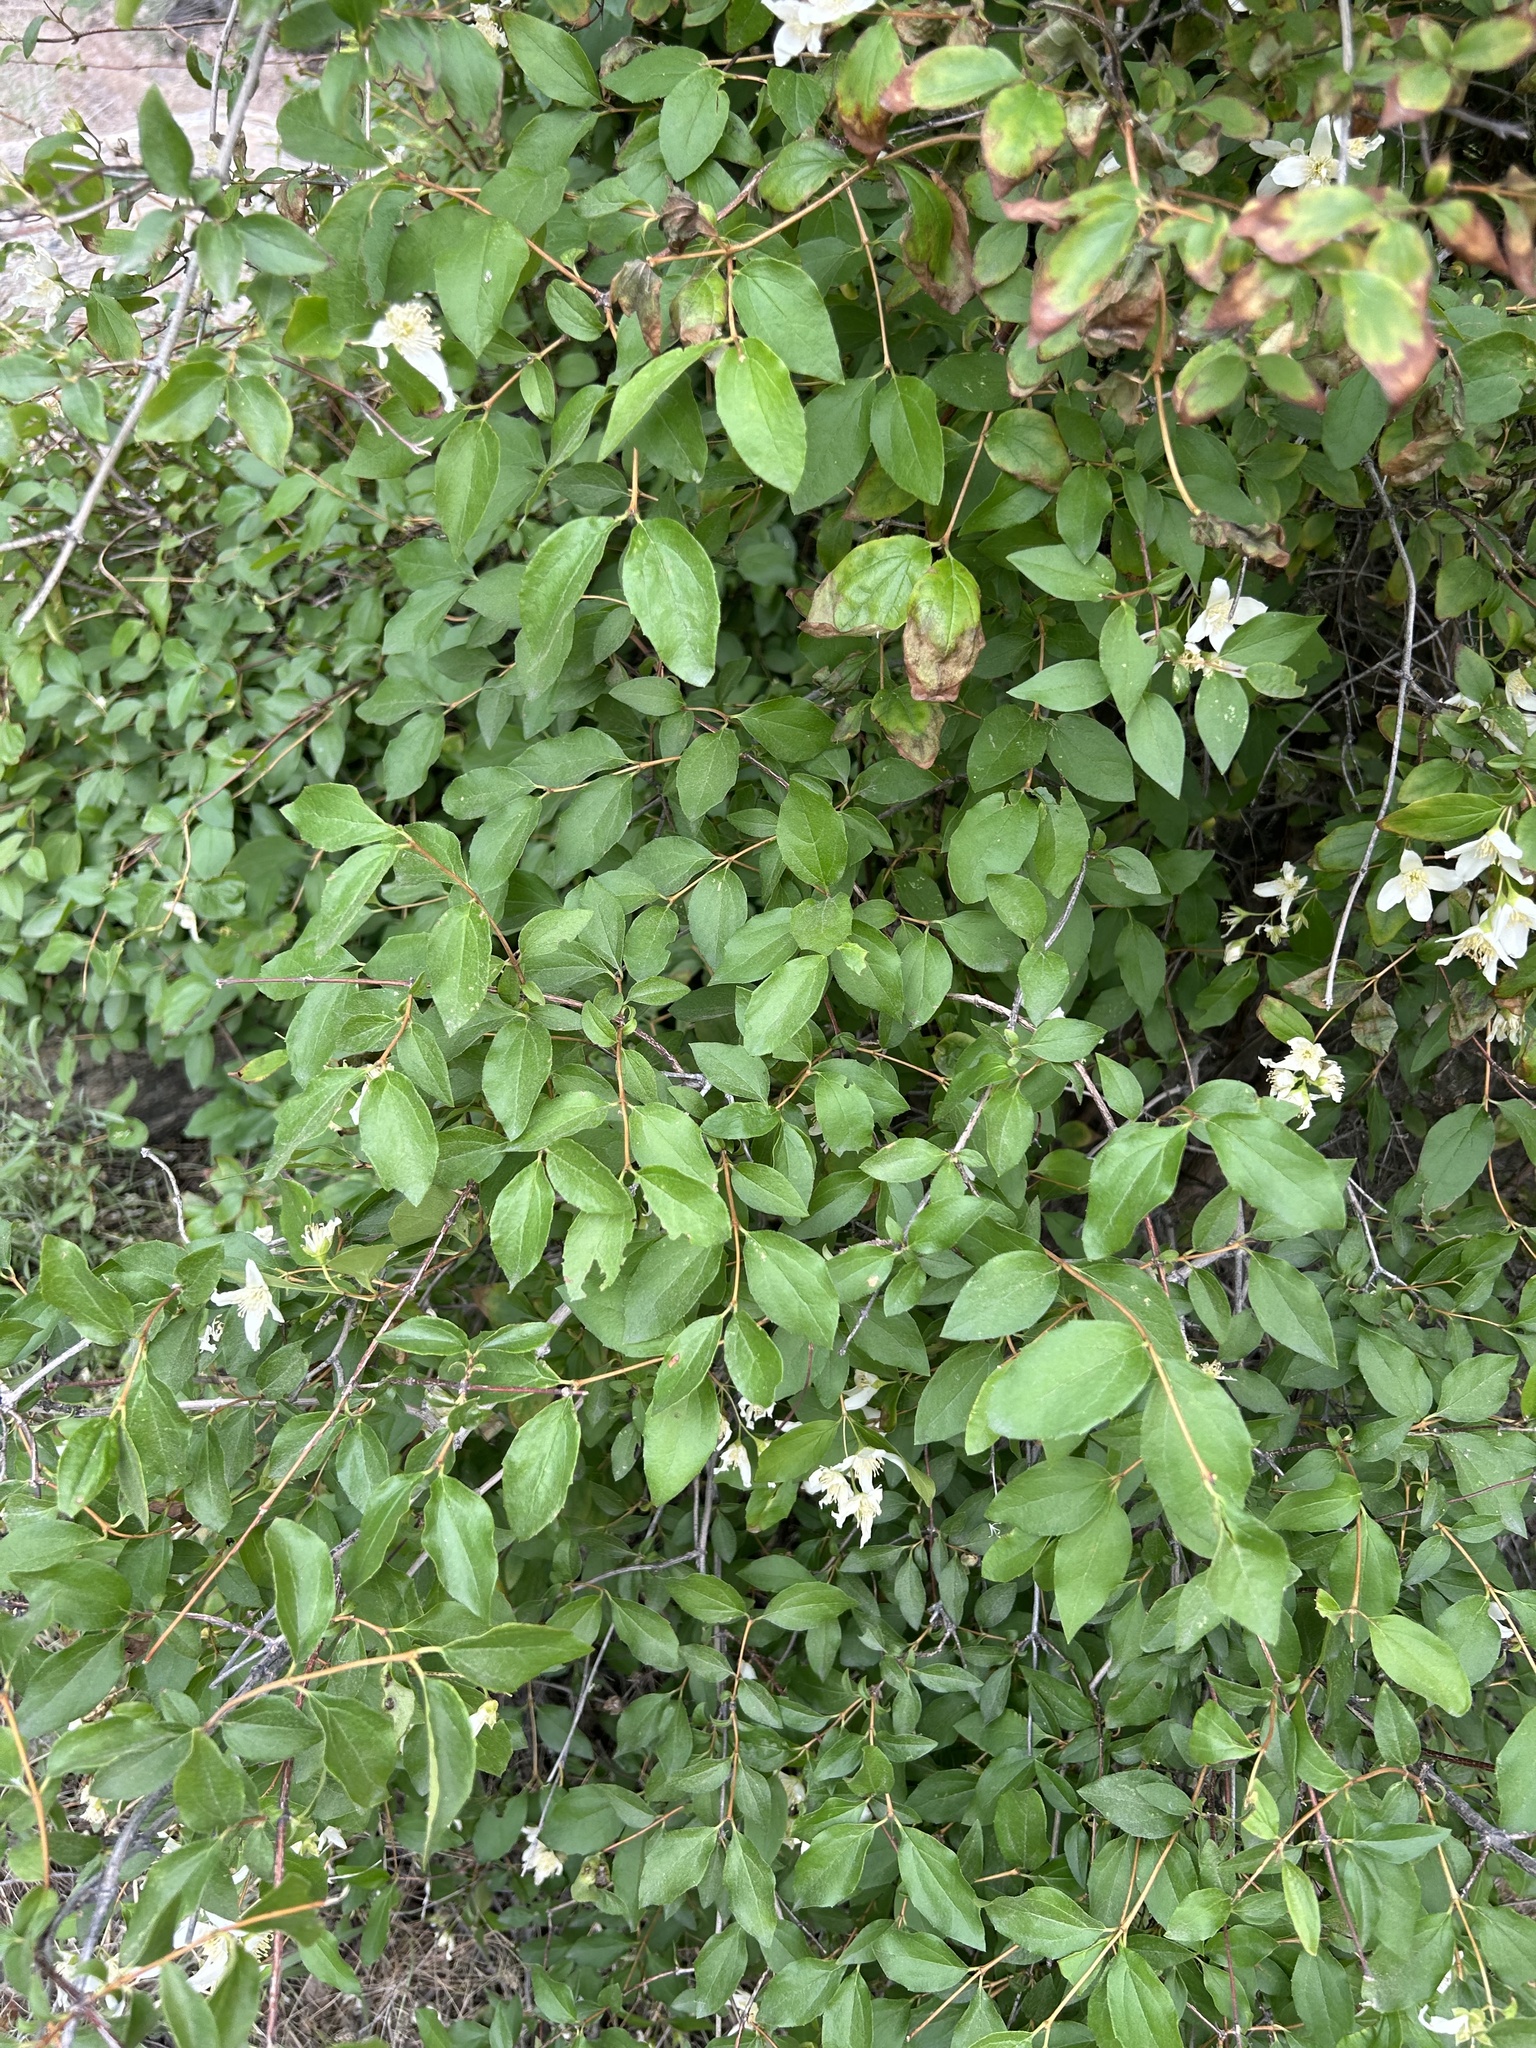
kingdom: Plantae
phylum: Tracheophyta
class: Magnoliopsida
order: Cornales
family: Hydrangeaceae
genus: Philadelphus
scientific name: Philadelphus lewisii
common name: Lewis's mock orange
